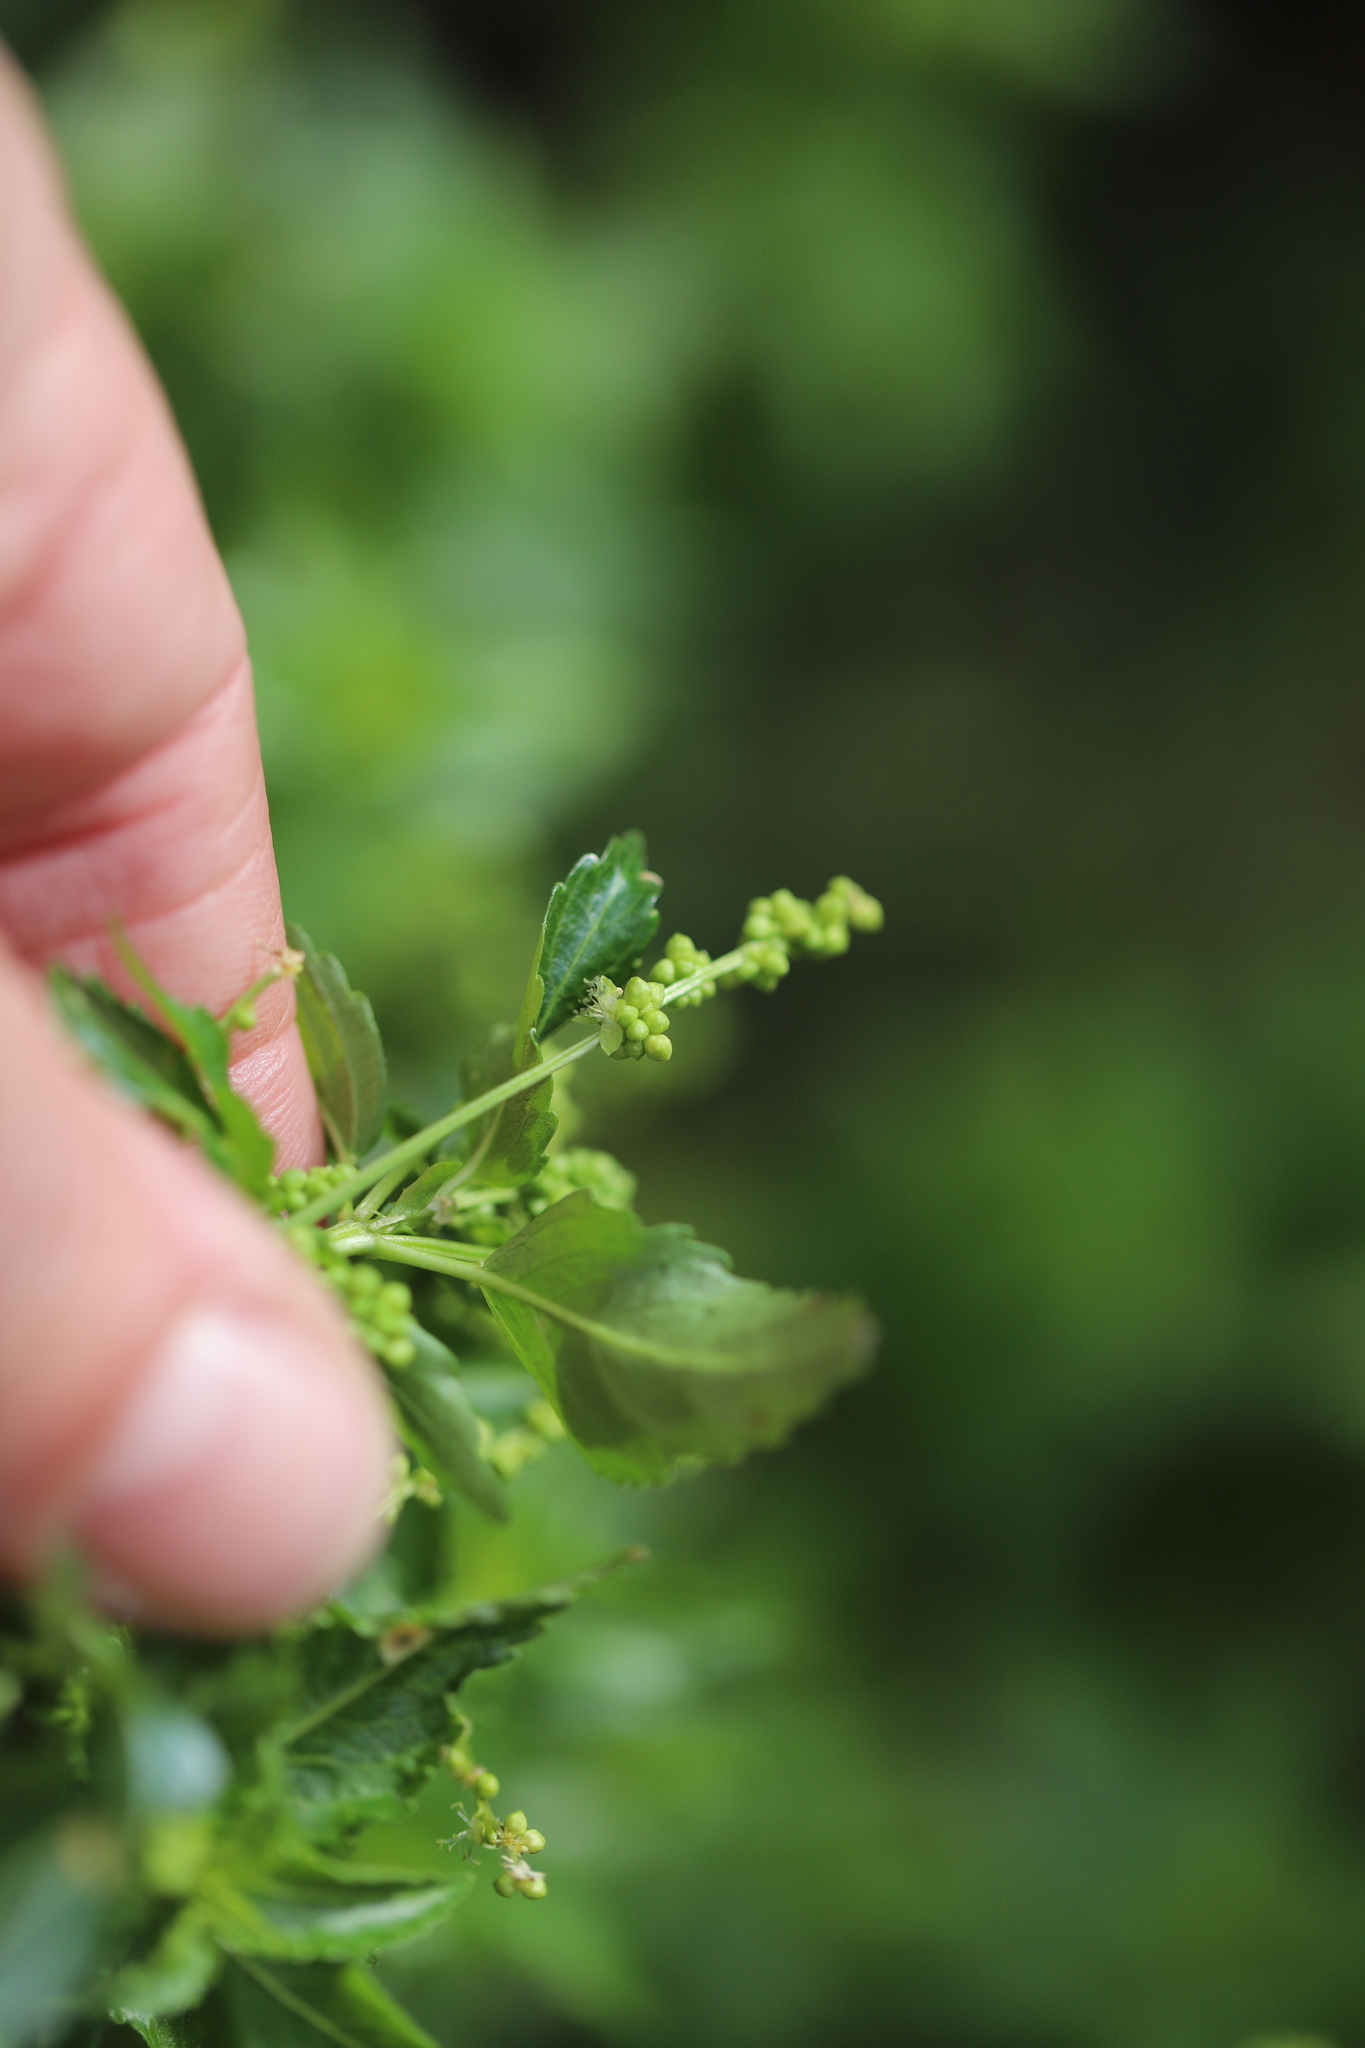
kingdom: Plantae
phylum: Tracheophyta
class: Magnoliopsida
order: Malpighiales
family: Euphorbiaceae
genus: Mercurialis
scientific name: Mercurialis annua
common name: Annual mercury
